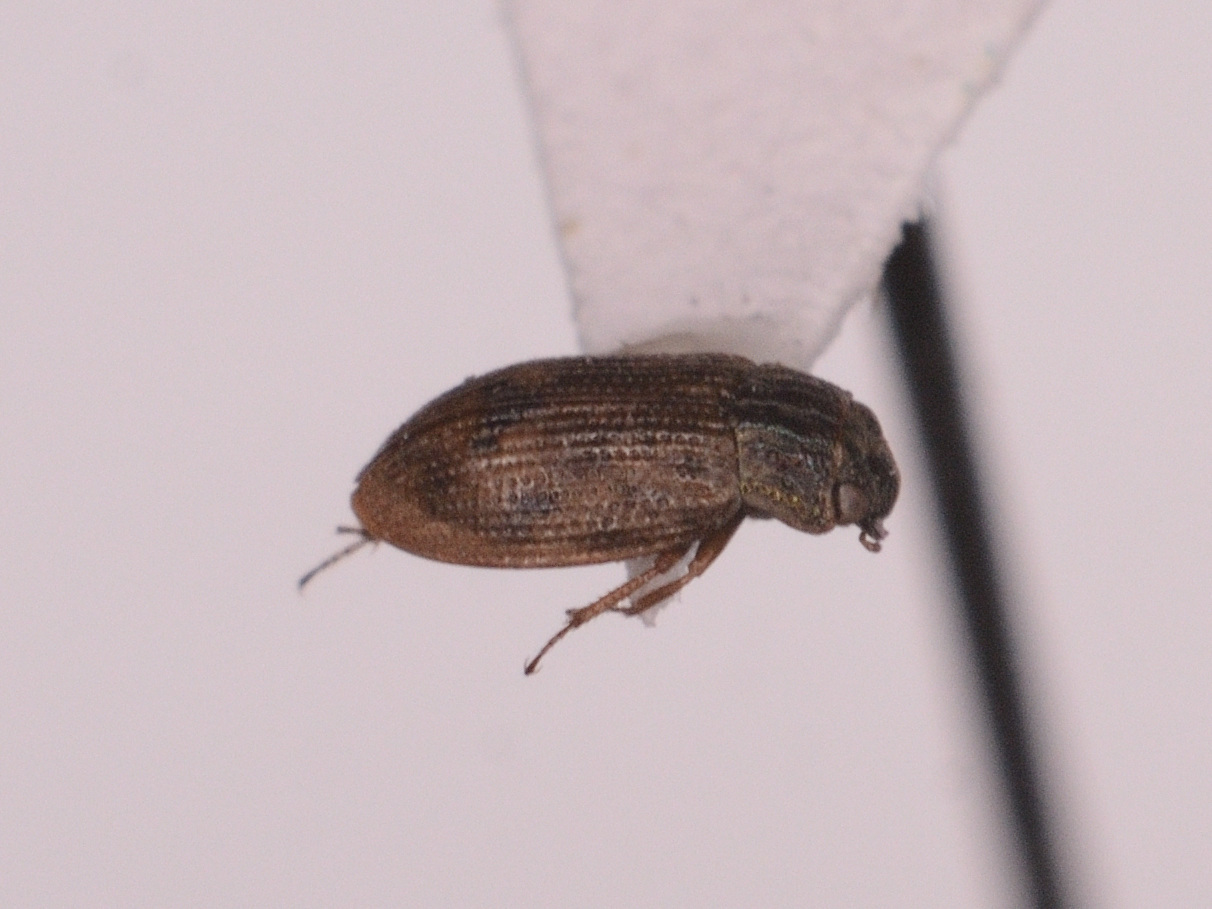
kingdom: Animalia
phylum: Arthropoda
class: Insecta
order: Coleoptera
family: Helophoridae
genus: Helophorus
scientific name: Helophorus brevipalpis
